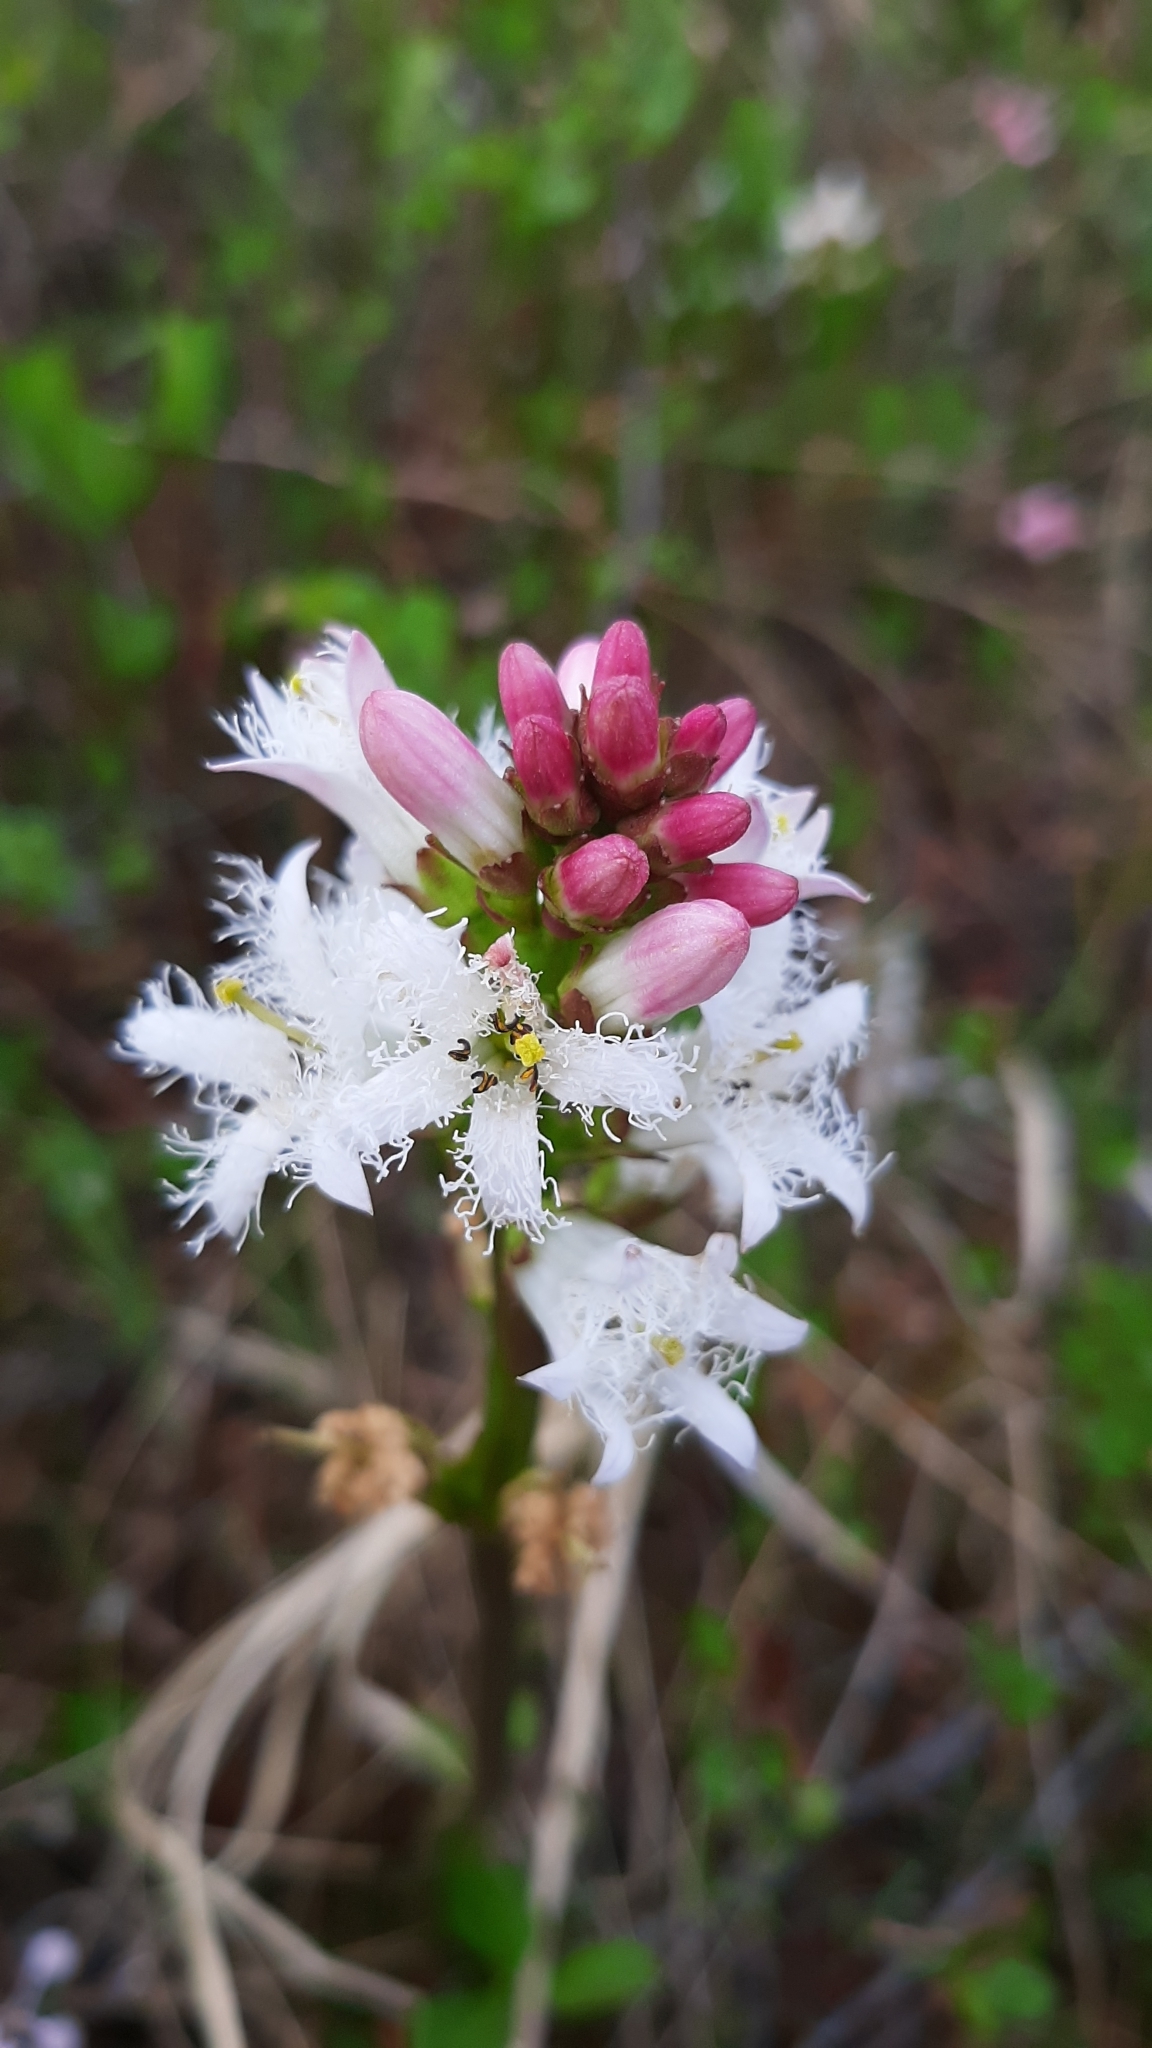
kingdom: Plantae
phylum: Tracheophyta
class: Magnoliopsida
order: Asterales
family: Menyanthaceae
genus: Menyanthes
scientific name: Menyanthes trifoliata
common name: Bogbean
